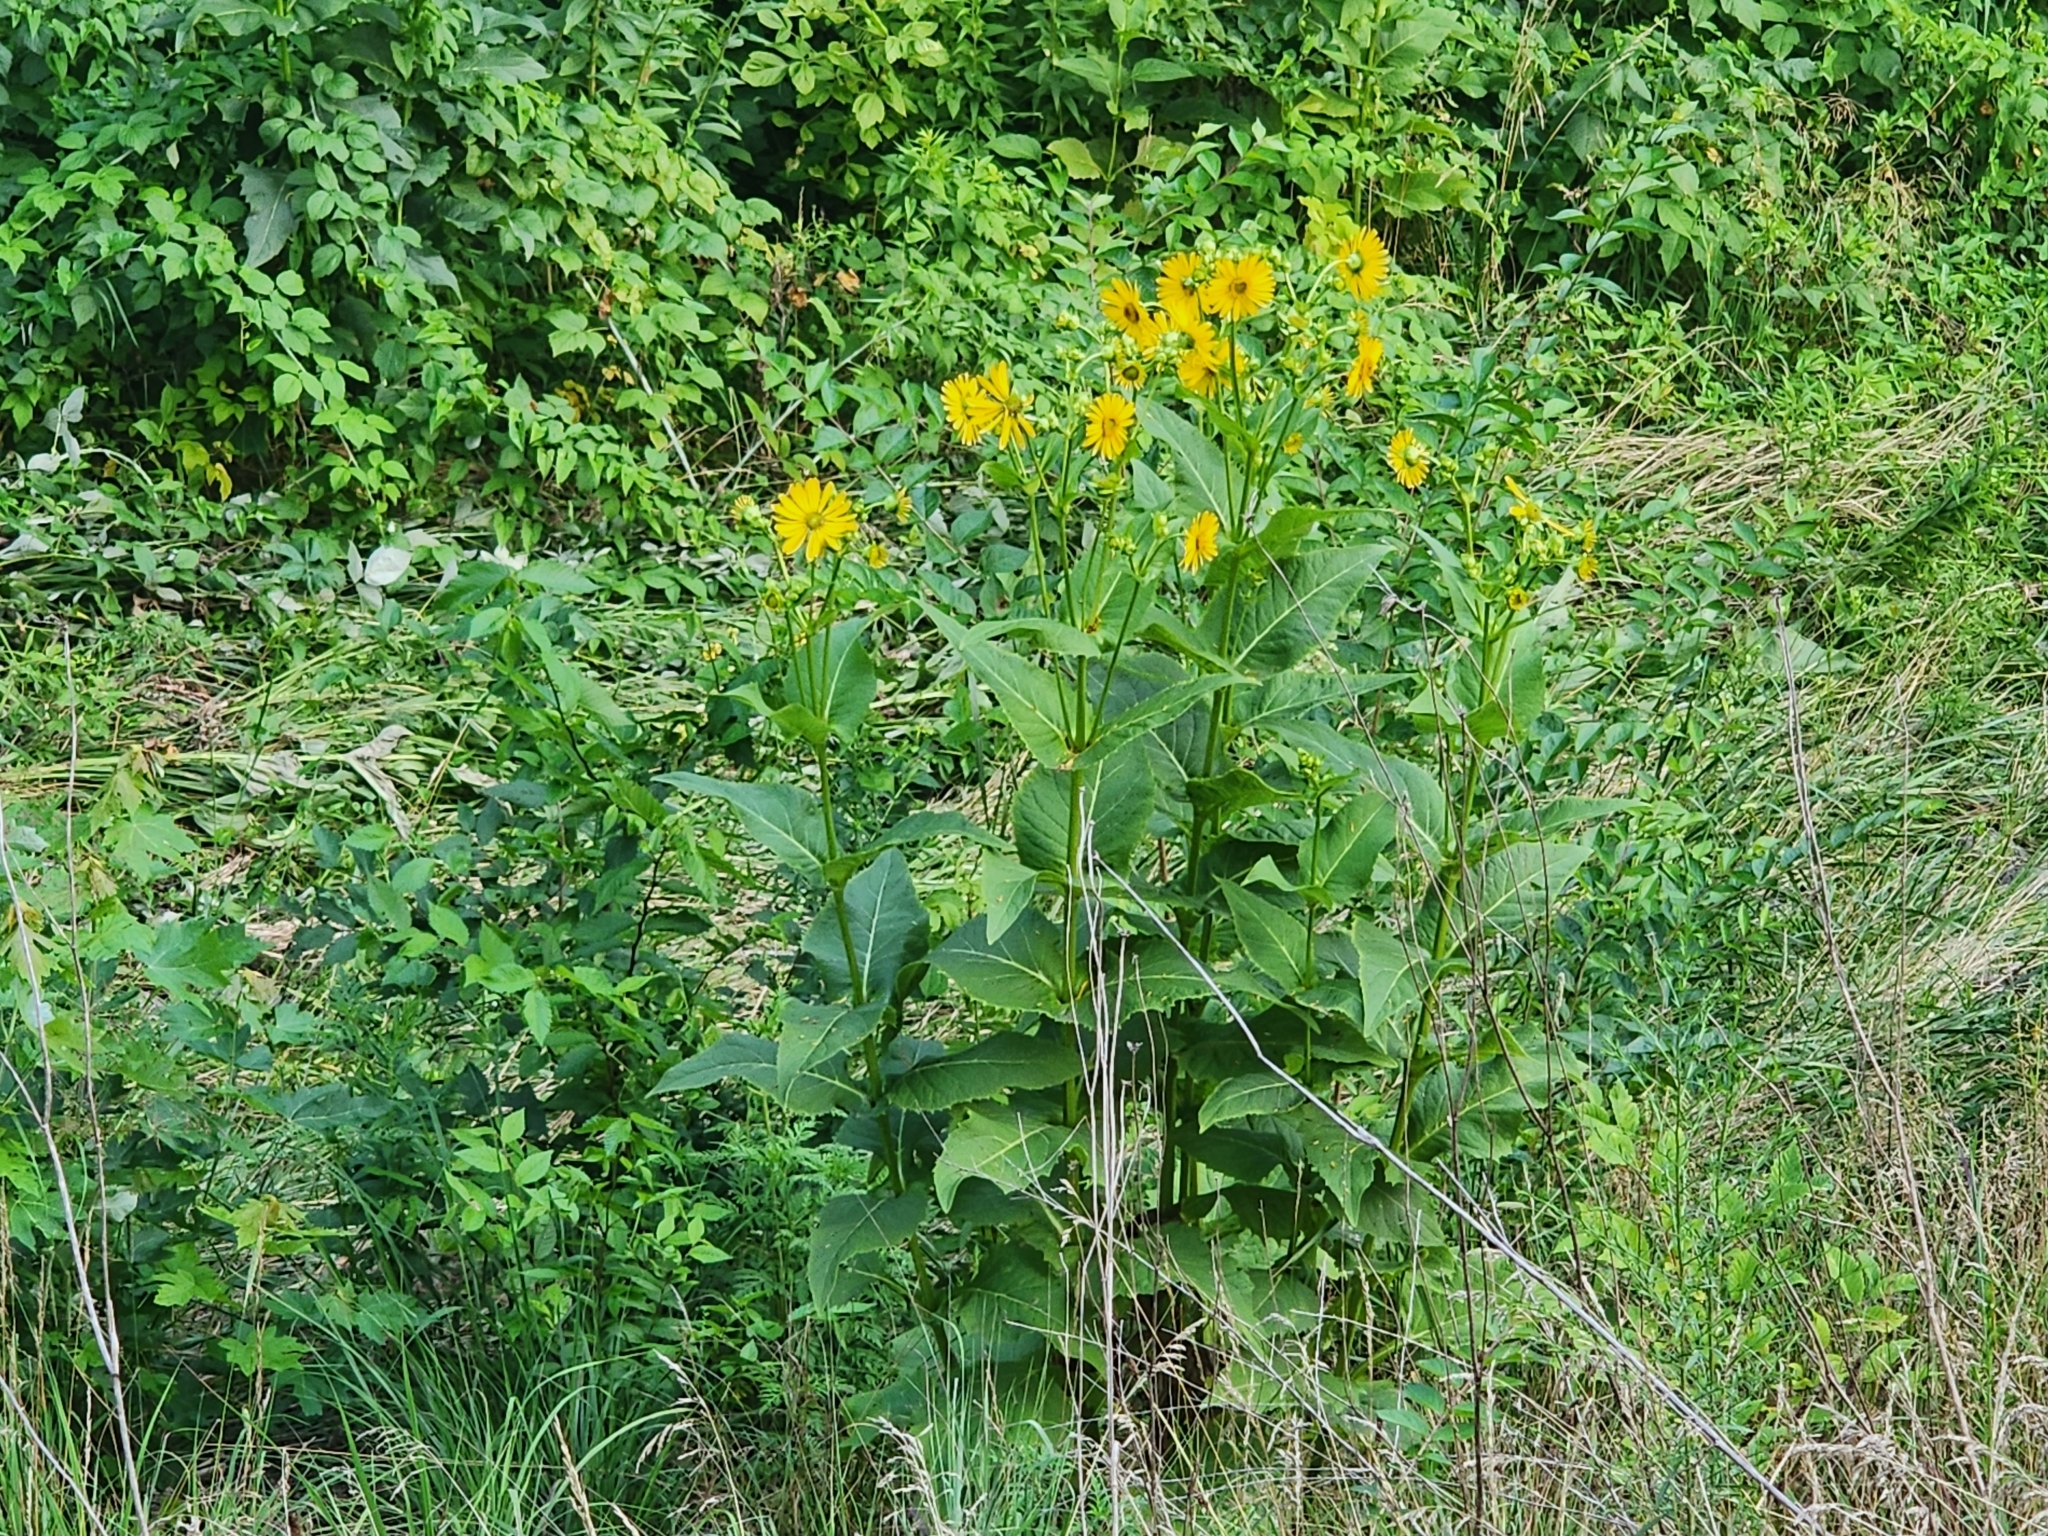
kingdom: Plantae
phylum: Tracheophyta
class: Magnoliopsida
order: Asterales
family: Asteraceae
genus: Silphium
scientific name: Silphium perfoliatum
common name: Cup-plant
